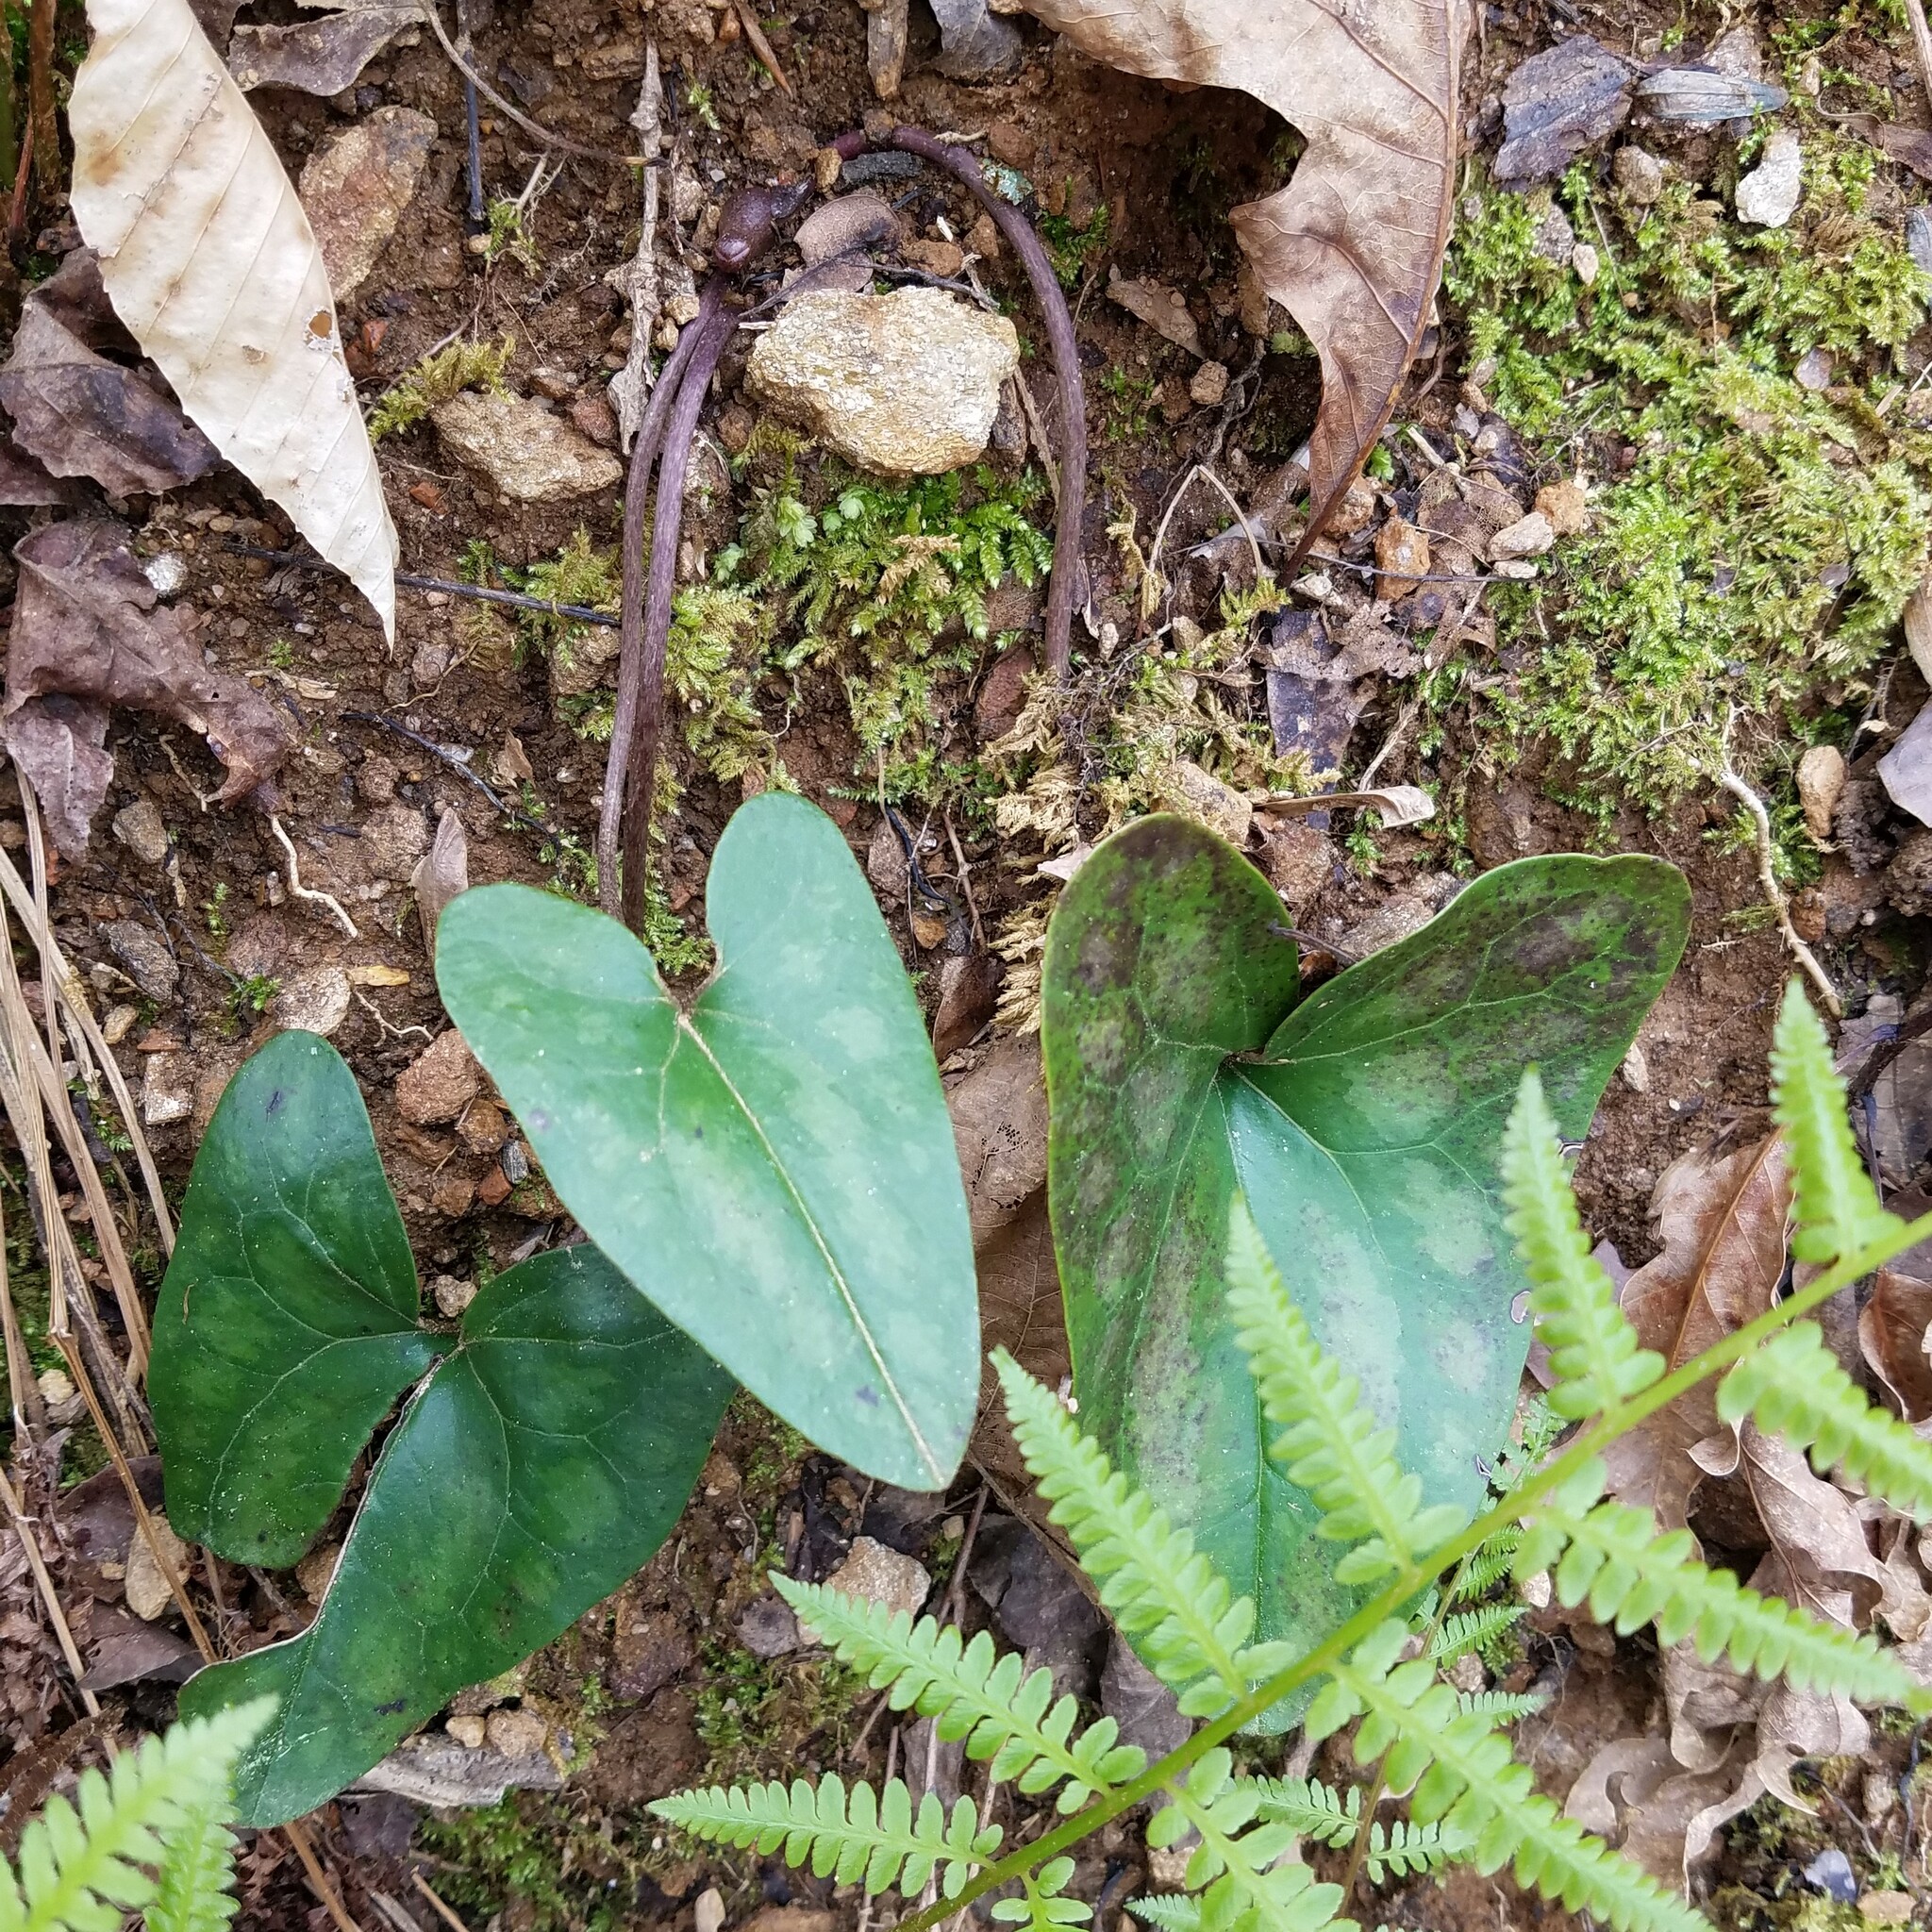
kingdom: Plantae
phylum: Tracheophyta
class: Magnoliopsida
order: Piperales
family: Aristolochiaceae
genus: Hexastylis
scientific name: Hexastylis arifolia
